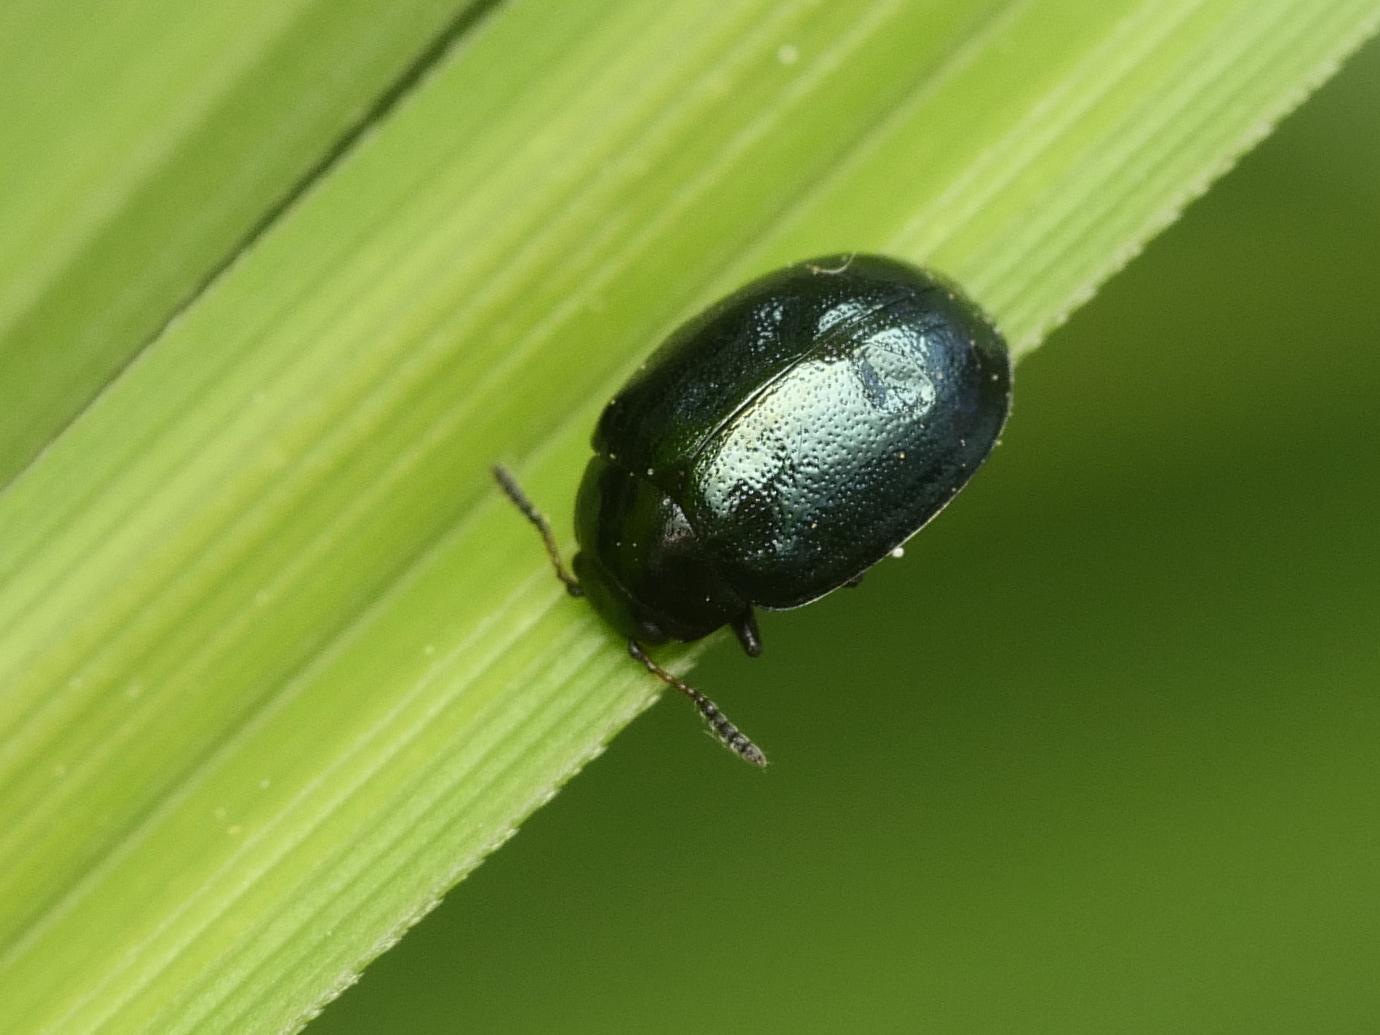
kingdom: Animalia
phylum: Arthropoda
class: Insecta
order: Coleoptera
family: Chrysomelidae
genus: Plagiodera
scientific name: Plagiodera versicolora
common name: Imported willow leaf beetle
